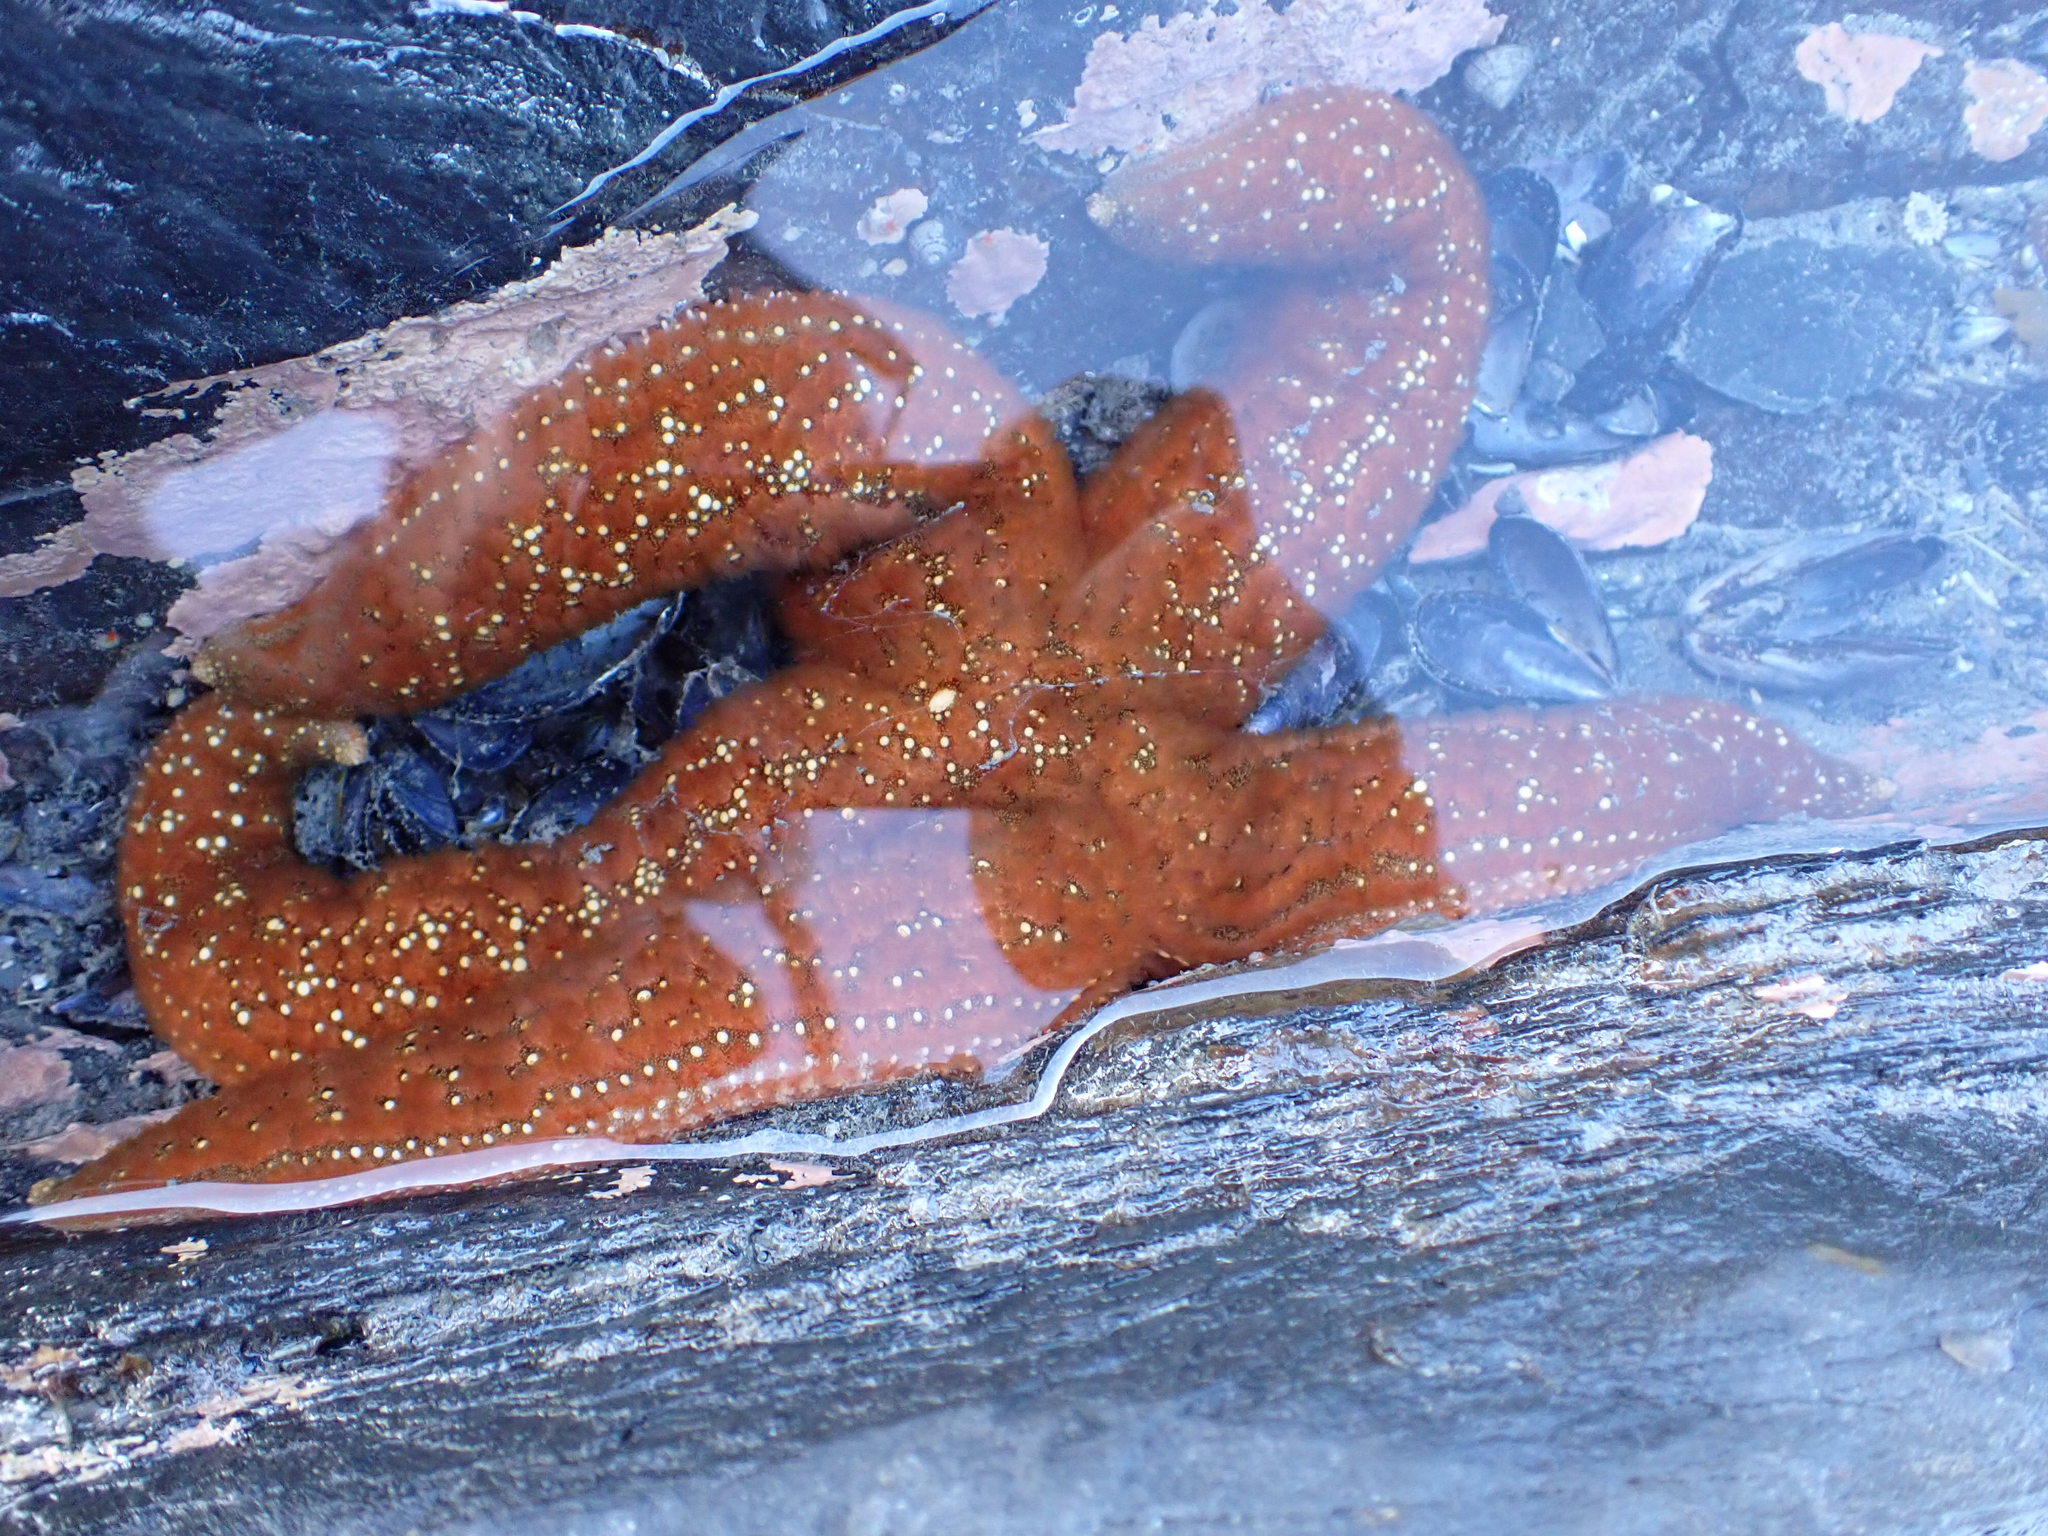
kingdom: Animalia
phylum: Echinodermata
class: Asteroidea
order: Forcipulatida
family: Asteriidae
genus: Evasterias
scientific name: Evasterias troschelii
